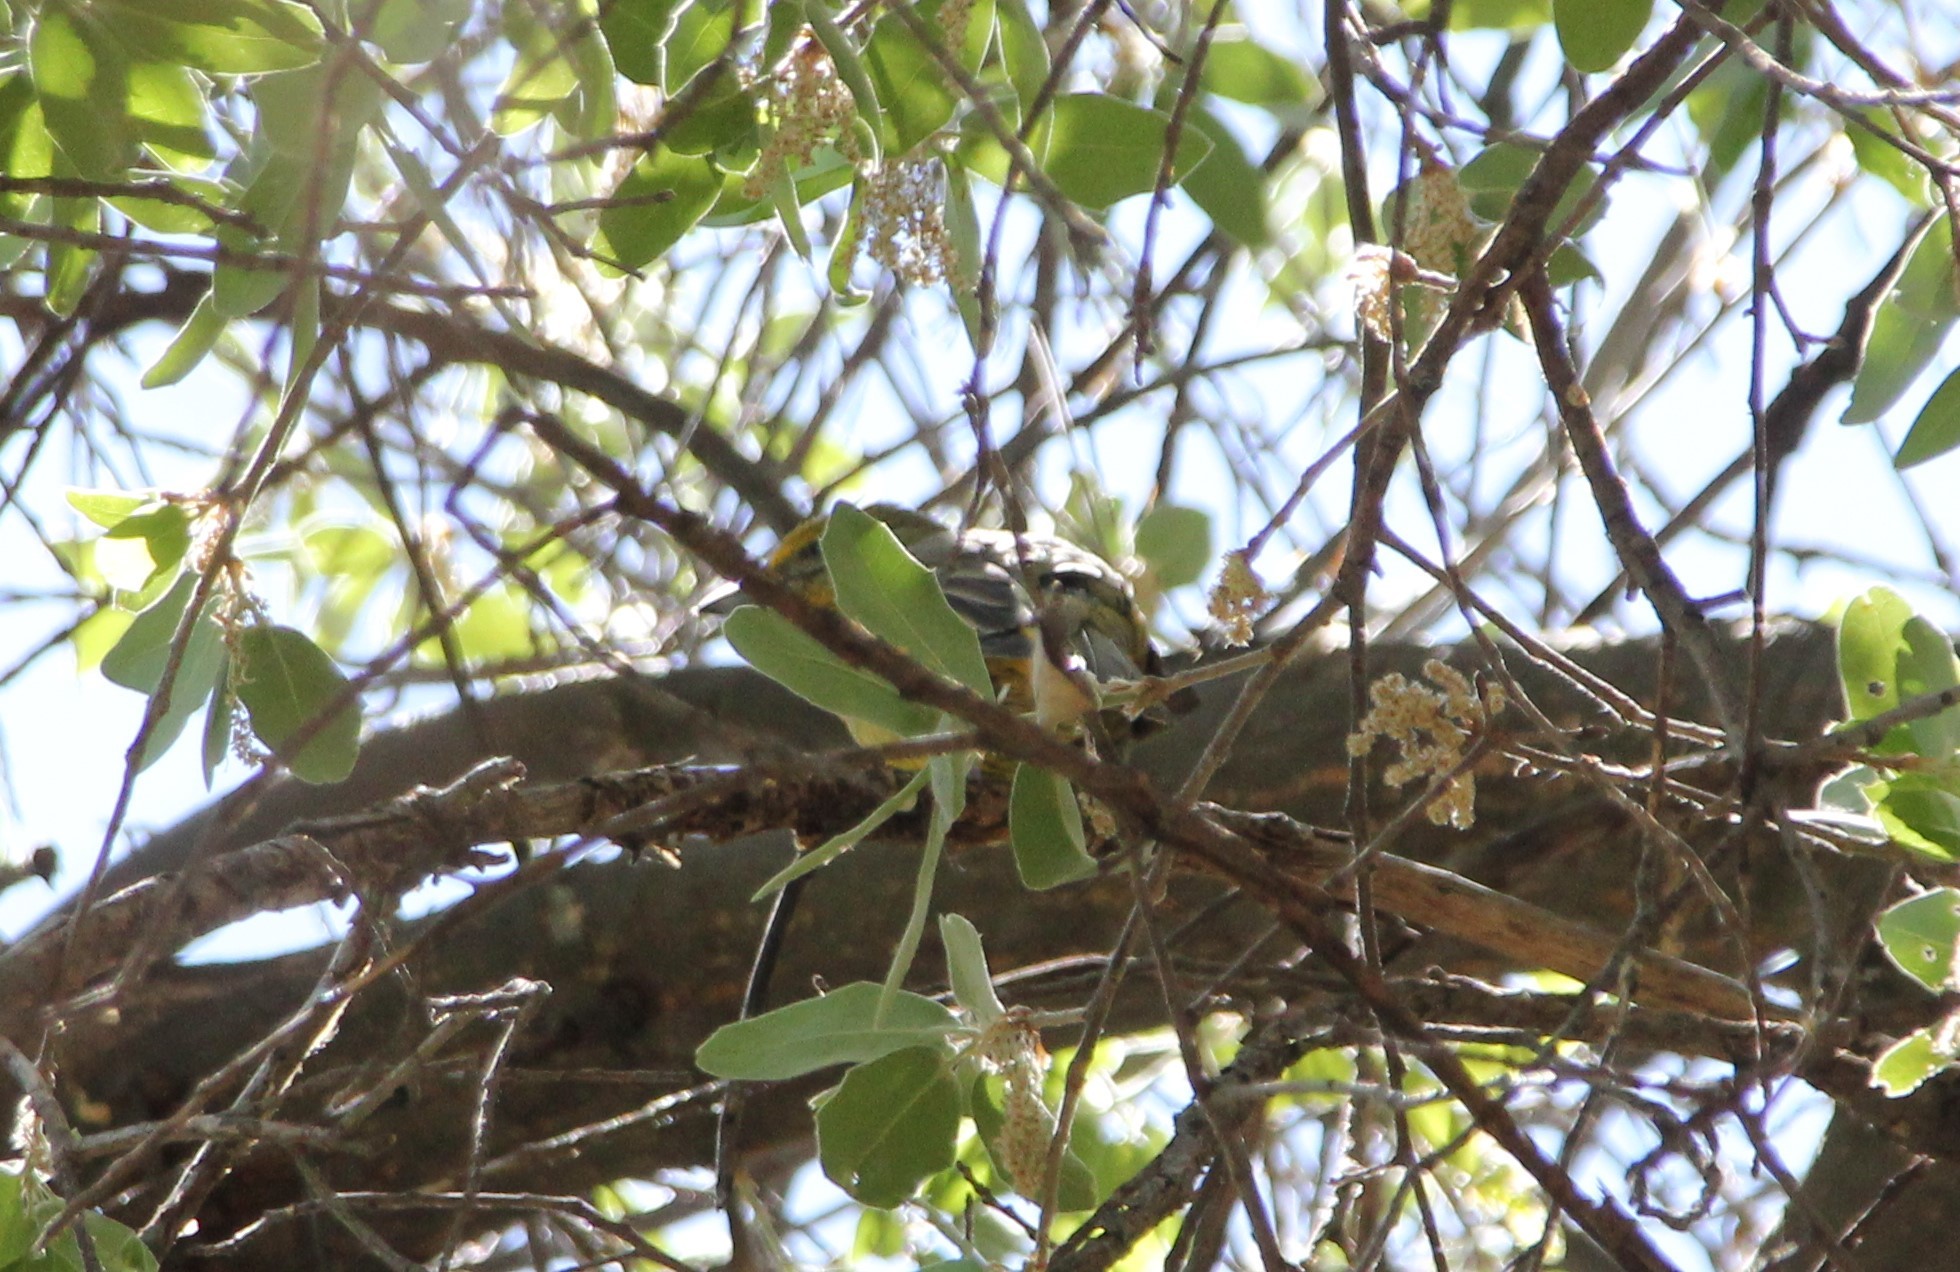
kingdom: Animalia
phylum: Chordata
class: Aves
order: Passeriformes
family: Cardinalidae
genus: Piranga
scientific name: Piranga flava
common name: Red tanager
